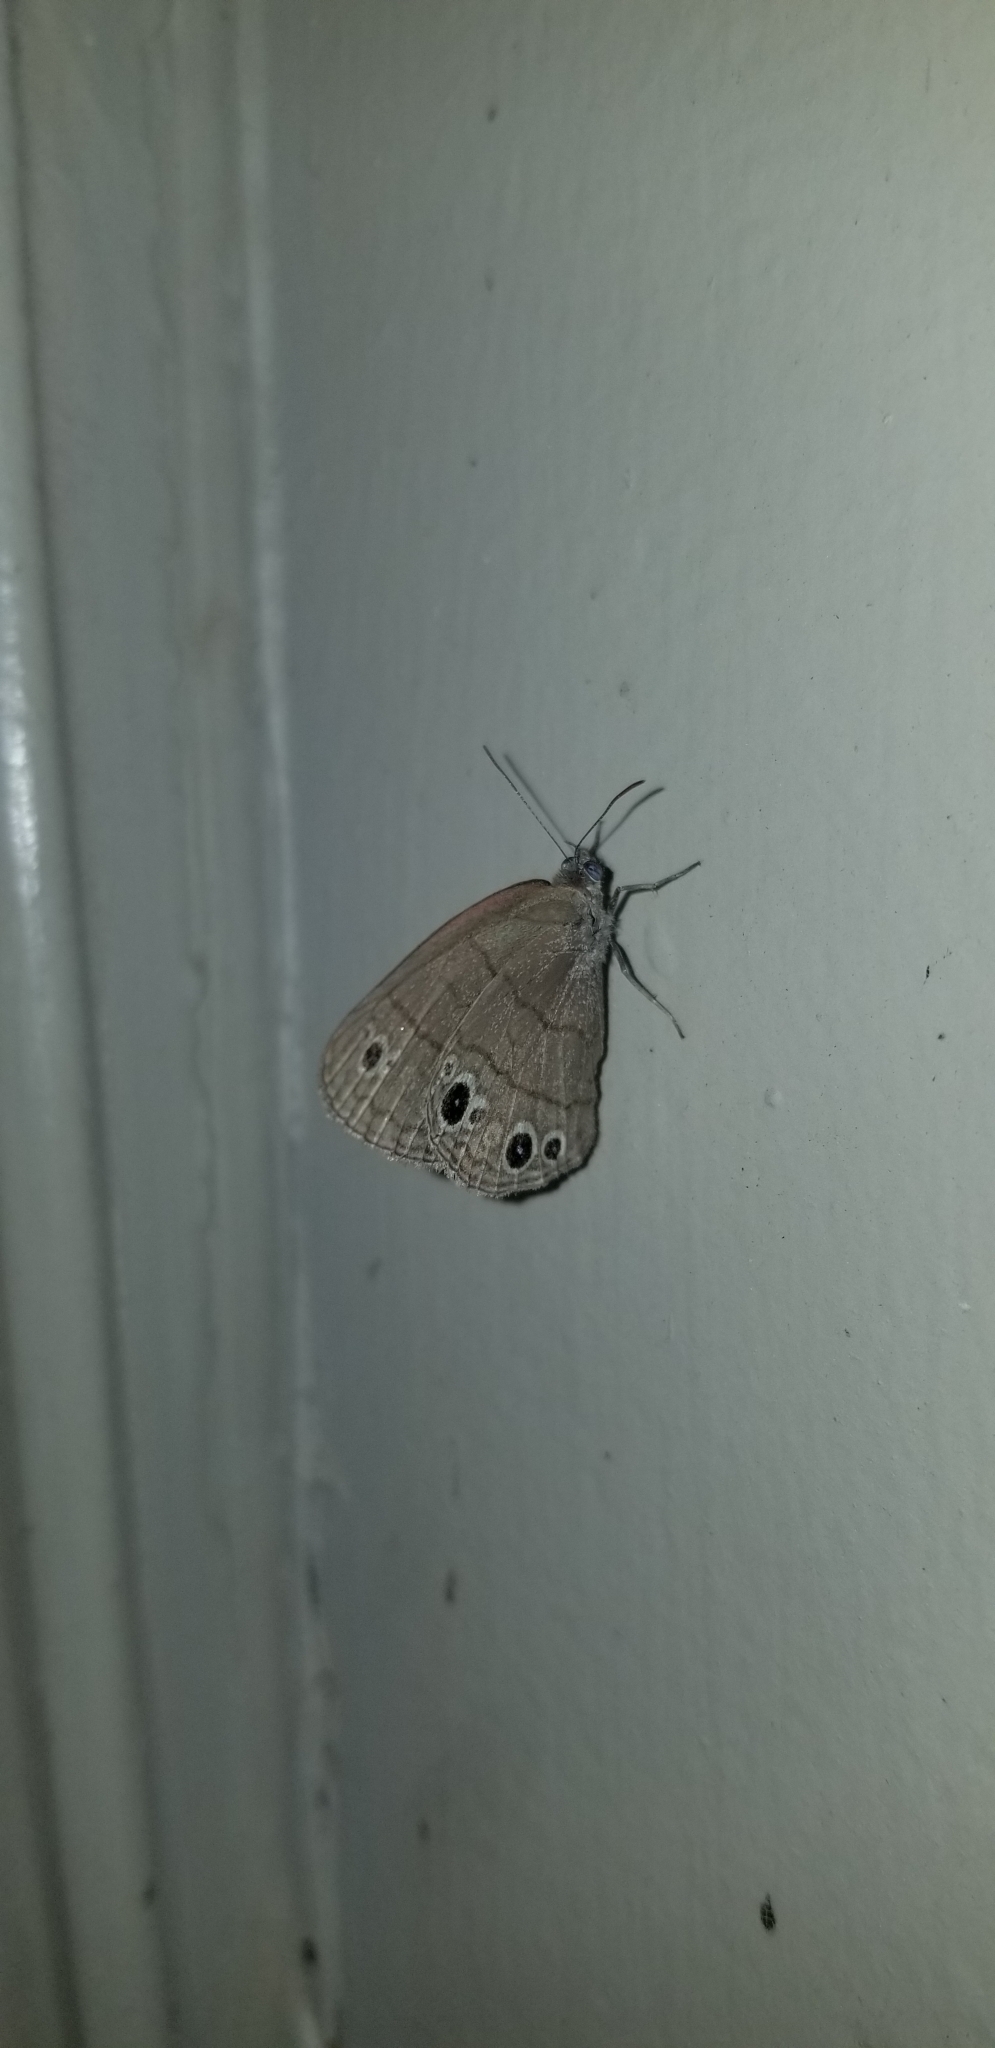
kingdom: Animalia
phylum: Arthropoda
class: Insecta
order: Lepidoptera
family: Nymphalidae
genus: Hermeuptychia
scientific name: Hermeuptychia hermes
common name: Hermes satyr
